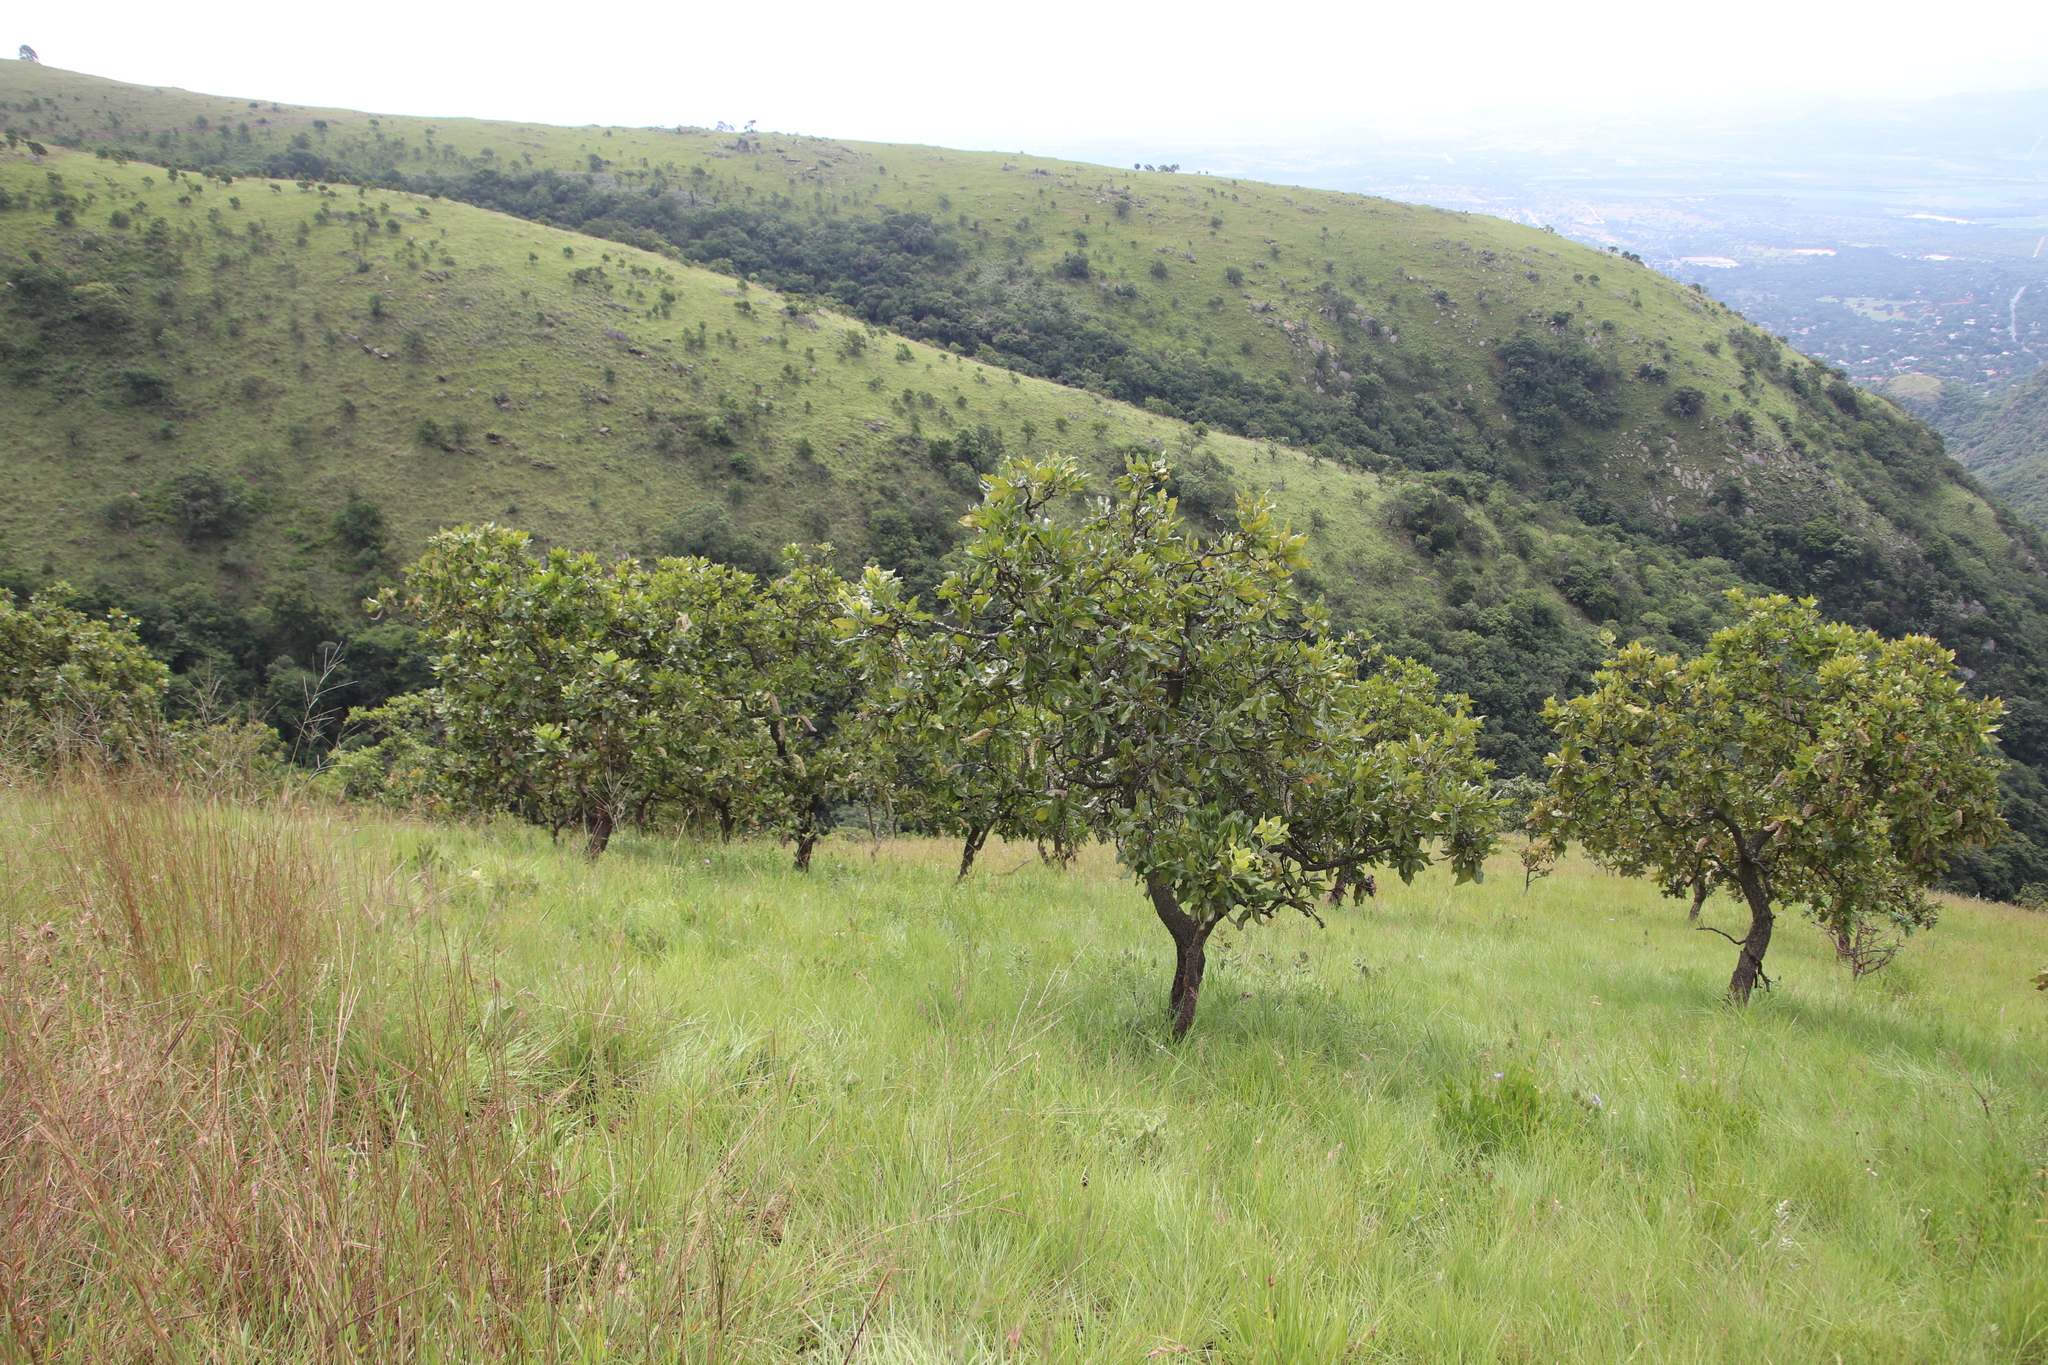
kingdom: Plantae
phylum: Tracheophyta
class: Magnoliopsida
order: Proteales
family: Proteaceae
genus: Faurea
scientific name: Faurea rochetiana
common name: Broad-leaved beech
